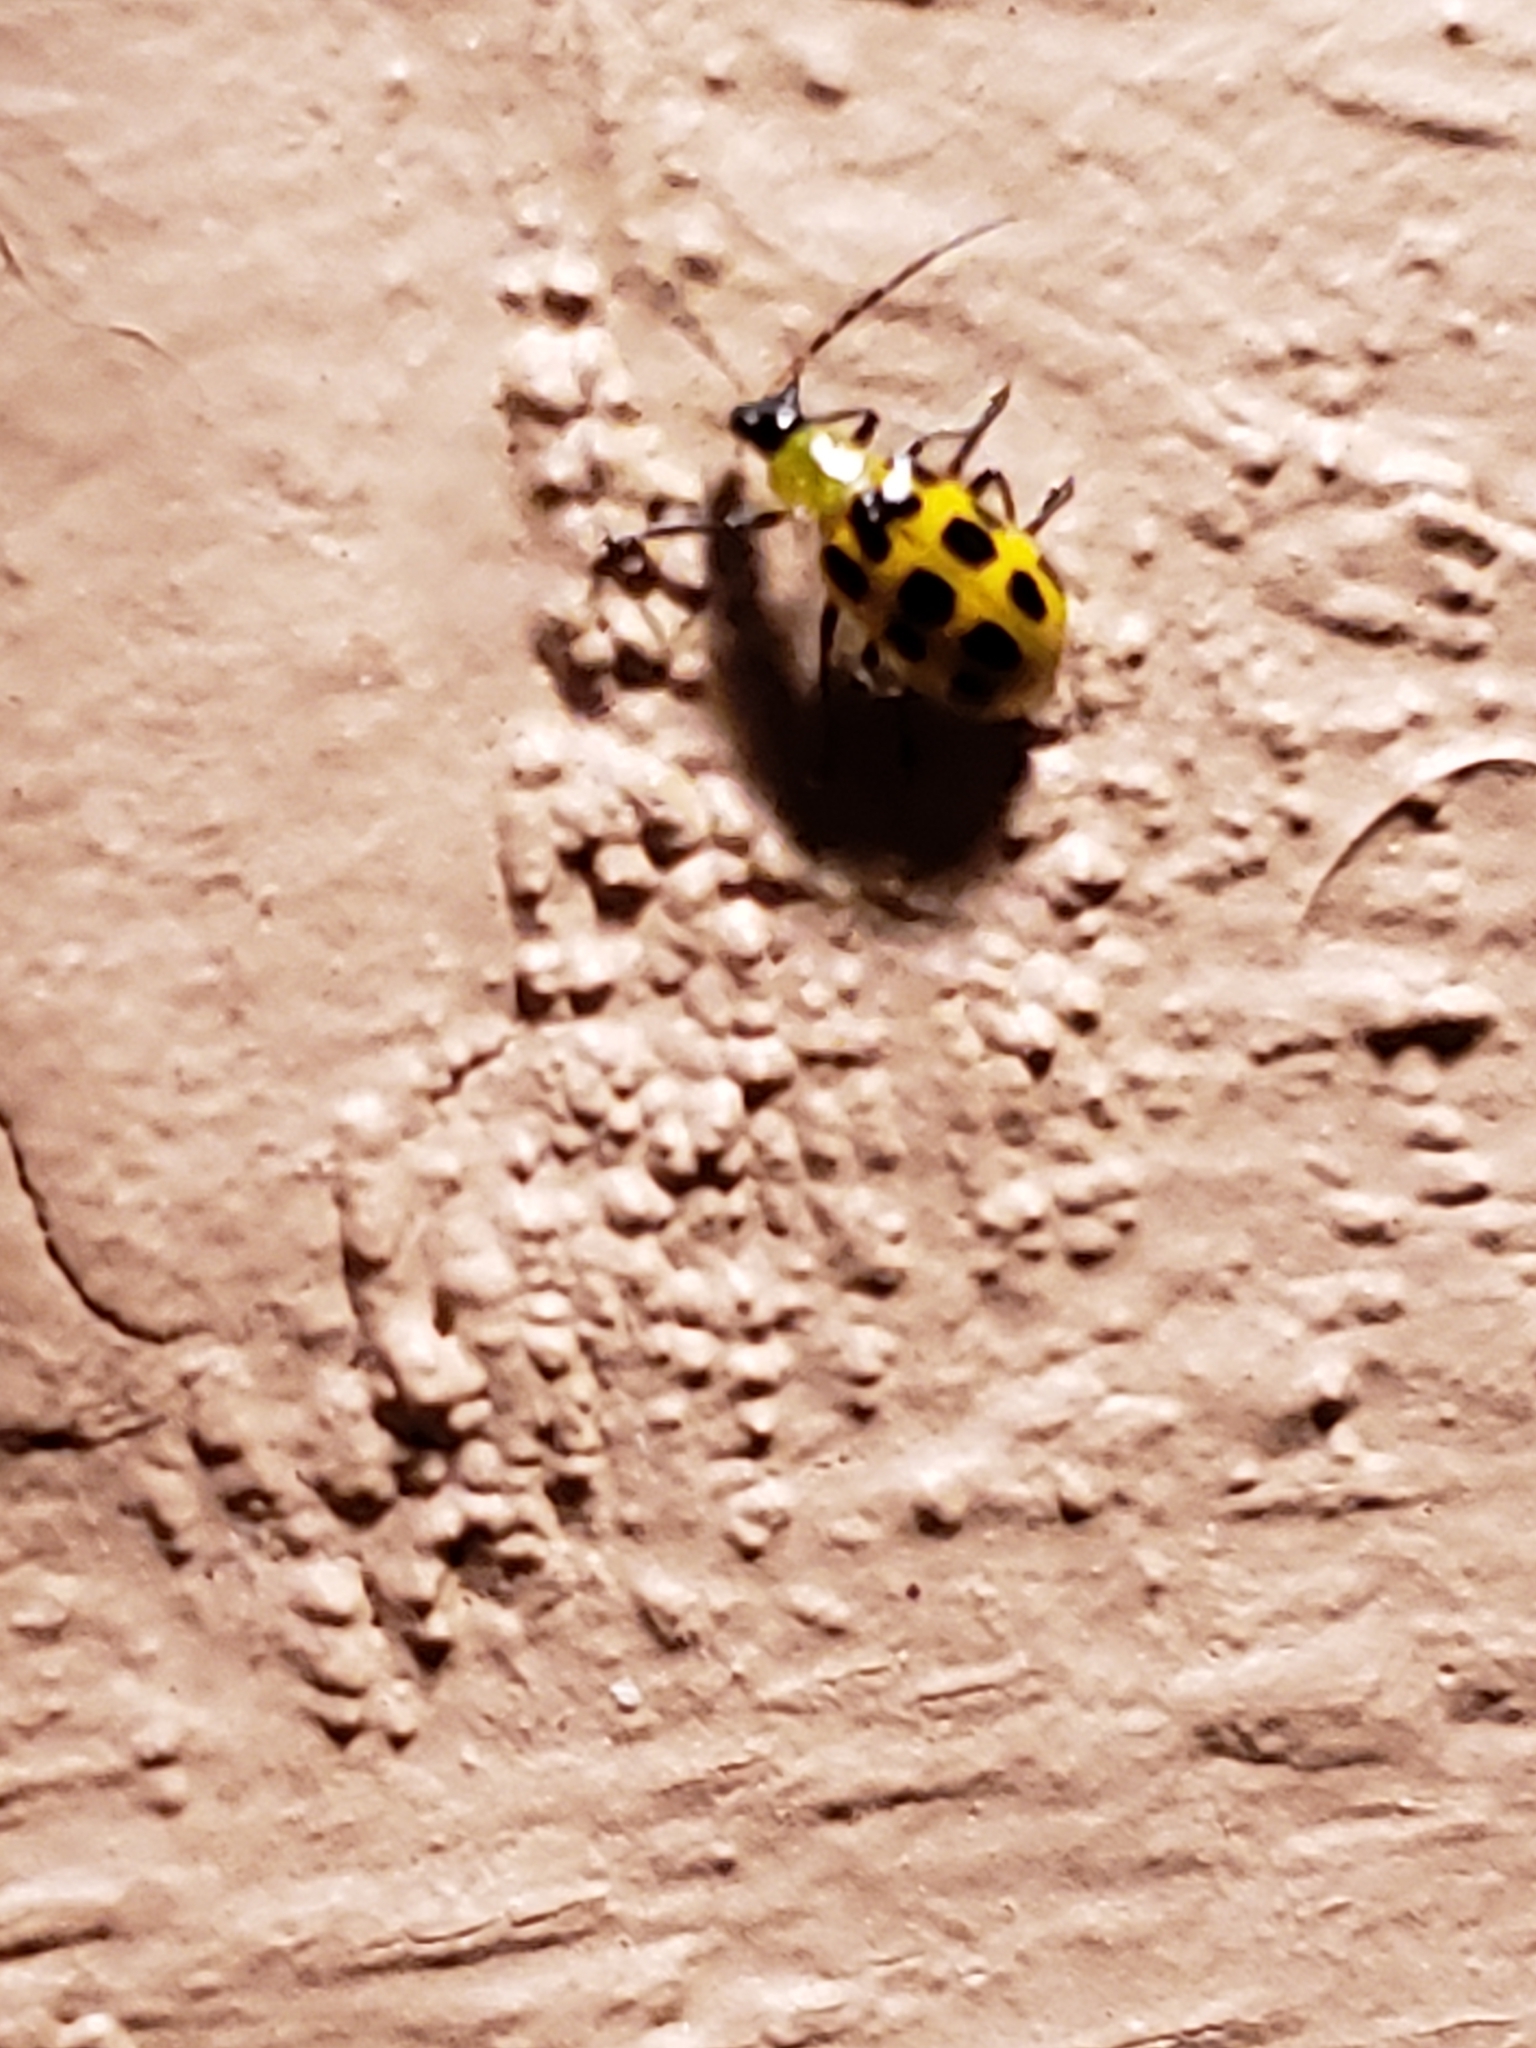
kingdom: Animalia
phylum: Arthropoda
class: Insecta
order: Coleoptera
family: Chrysomelidae
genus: Diabrotica
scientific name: Diabrotica undecimpunctata
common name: Spotted cucumber beetle
